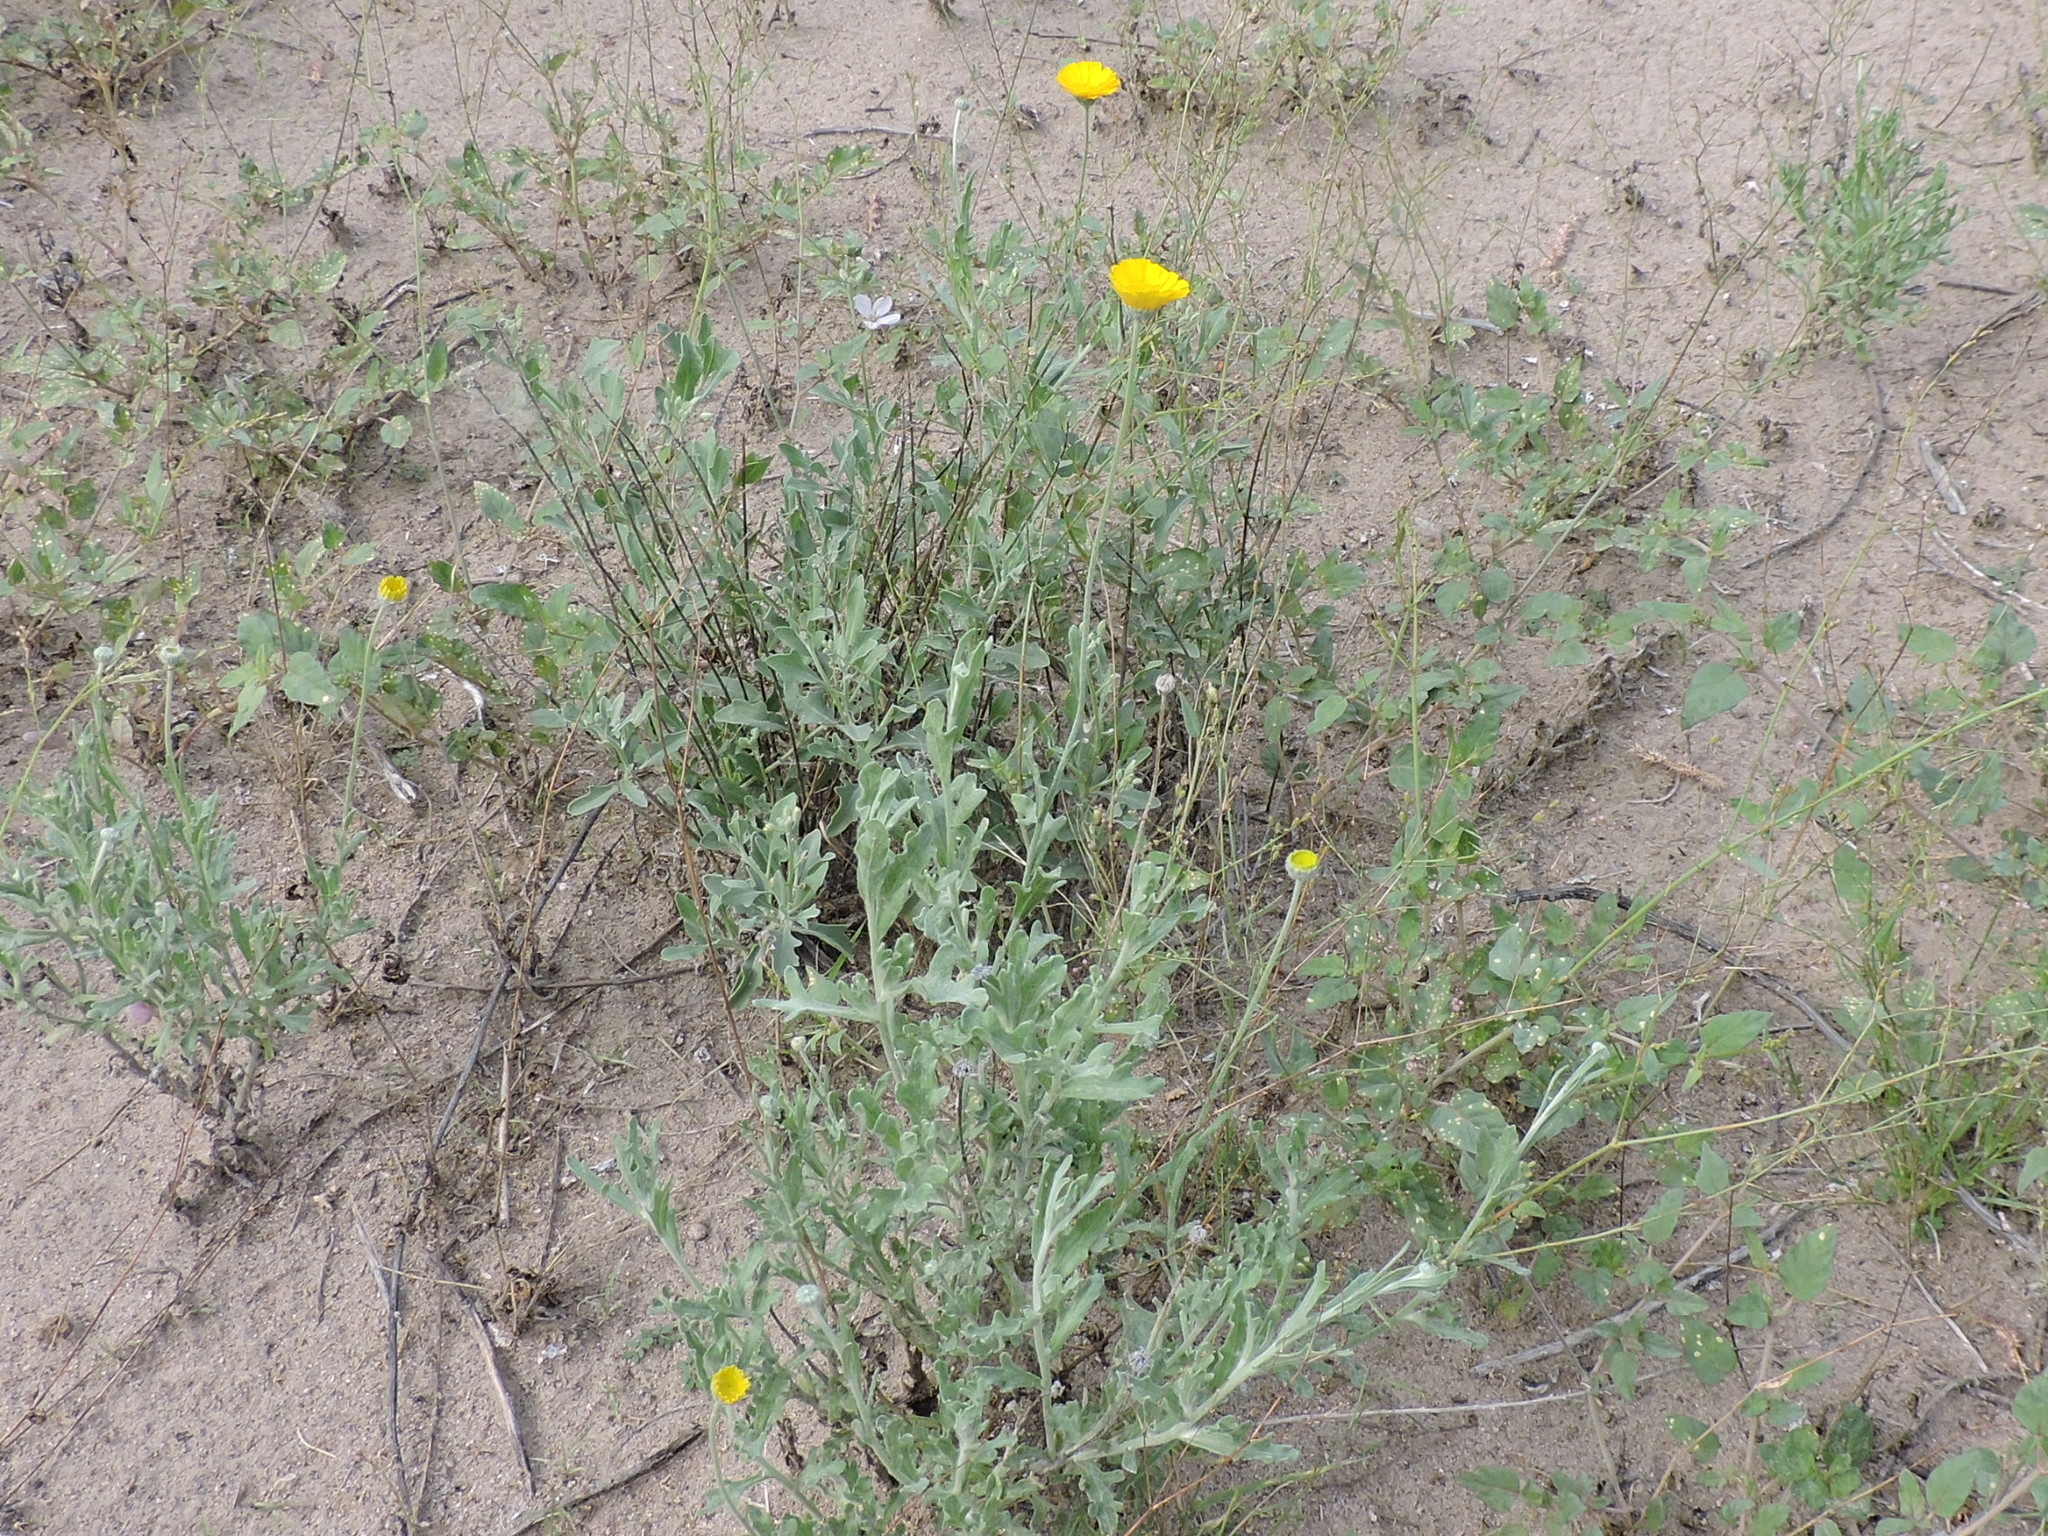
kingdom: Plantae
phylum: Tracheophyta
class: Magnoliopsida
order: Asterales
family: Asteraceae
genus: Baileya
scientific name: Baileya multiradiata
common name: Desert-marigold
